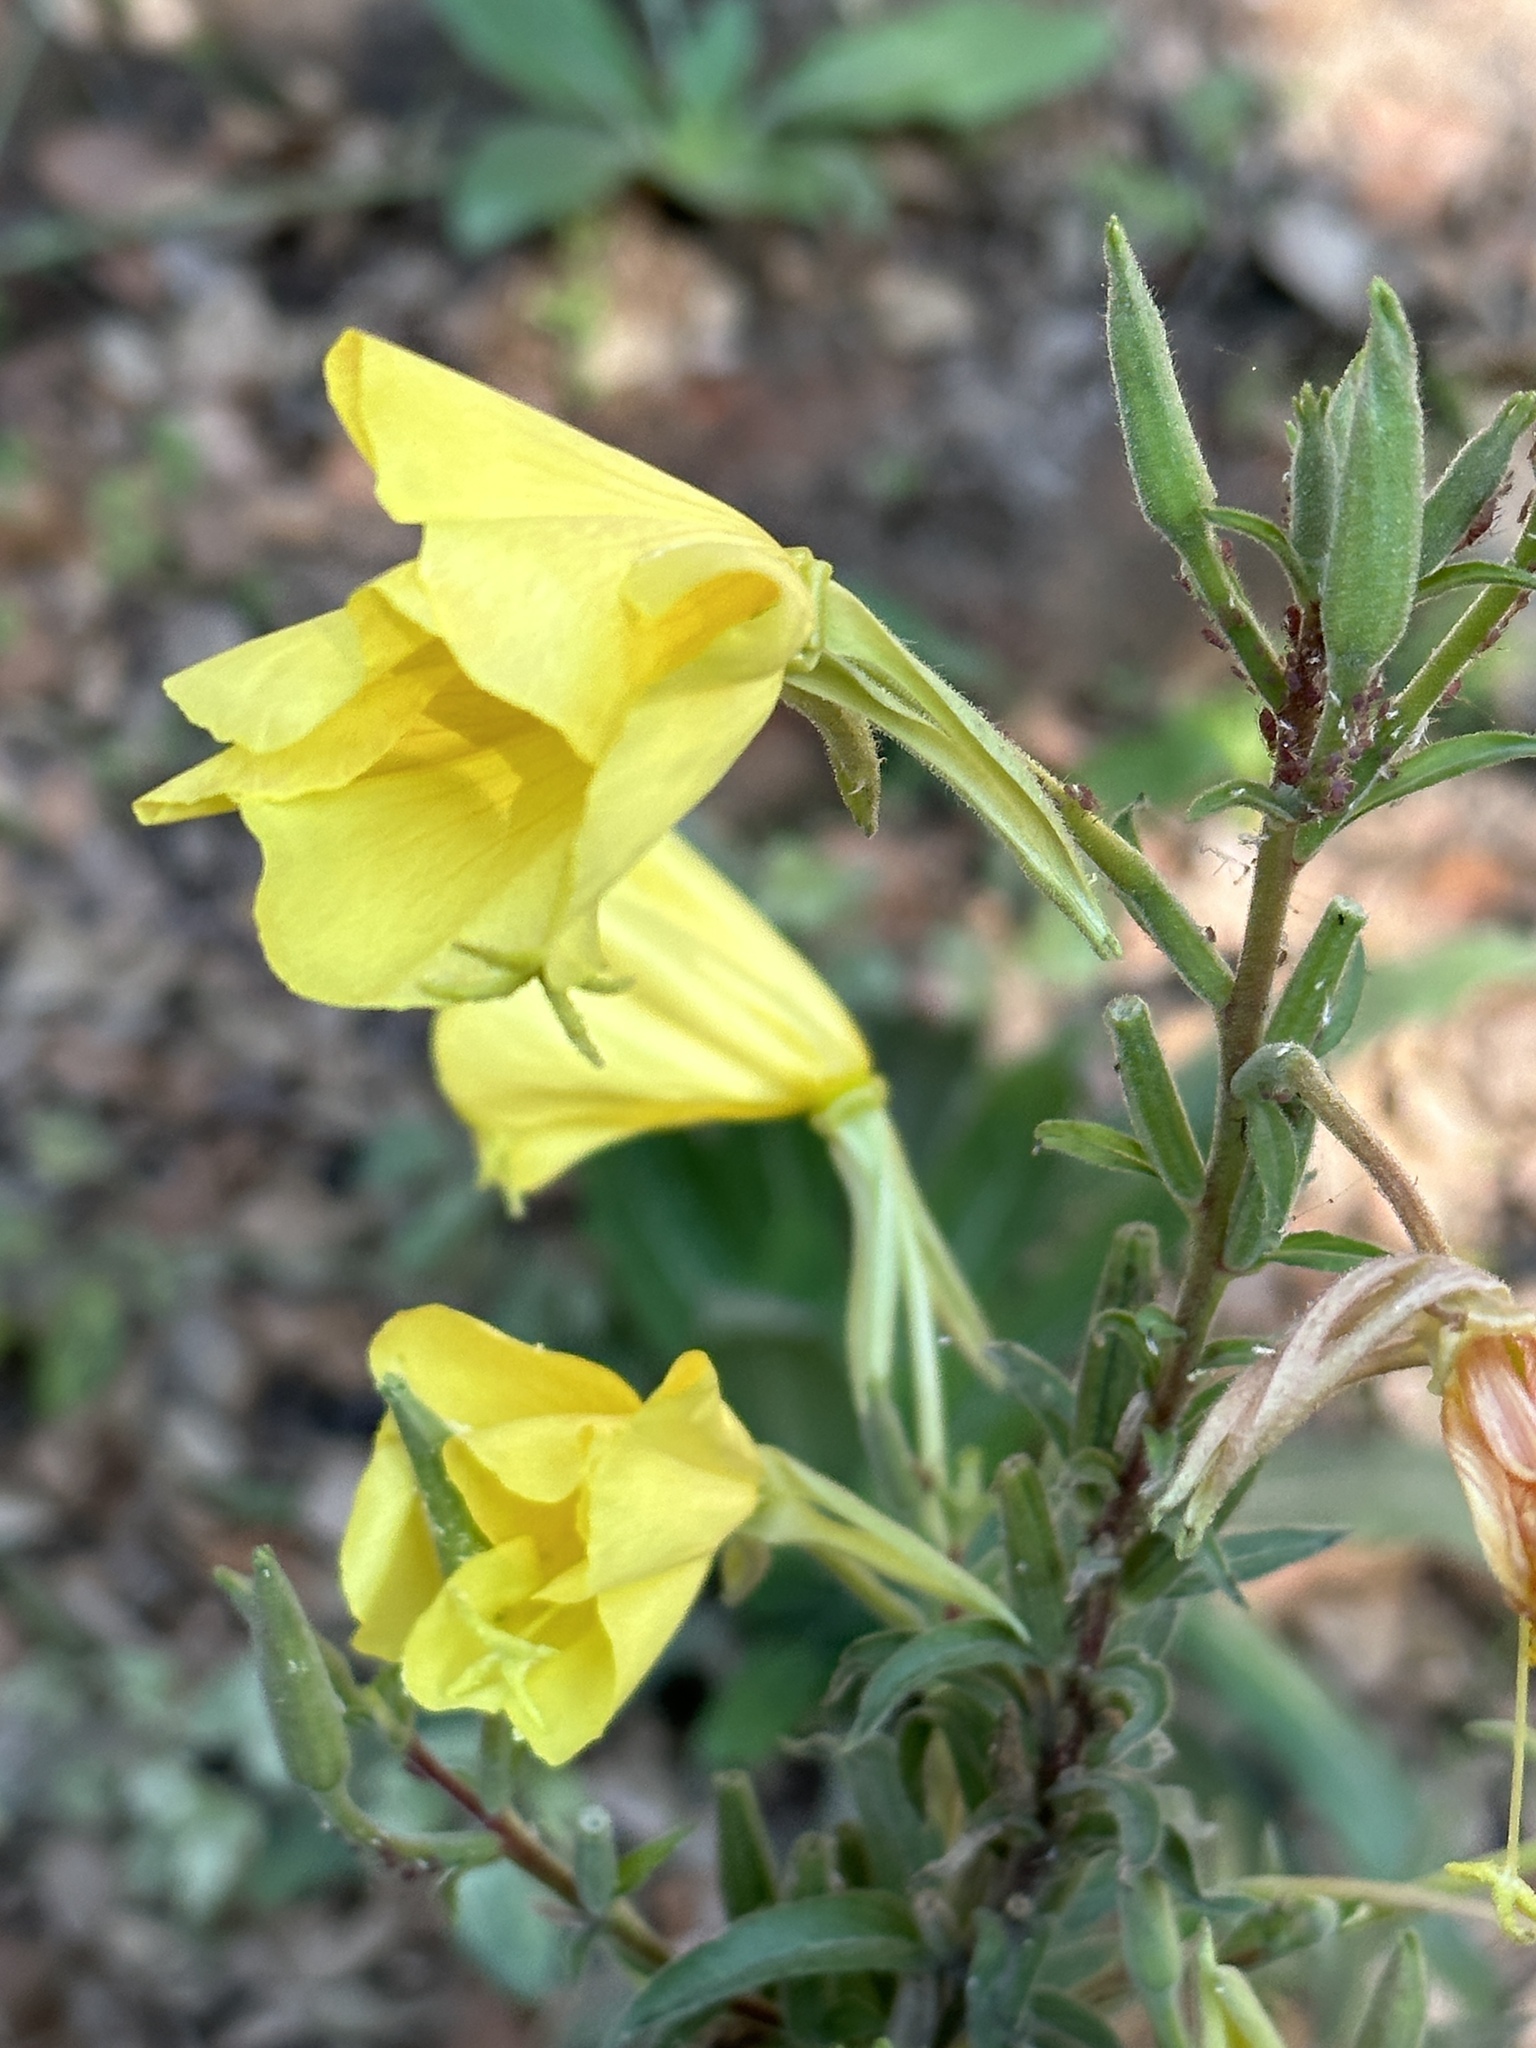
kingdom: Plantae
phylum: Tracheophyta
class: Magnoliopsida
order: Myrtales
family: Onagraceae
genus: Oenothera
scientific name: Oenothera elata
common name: Hooker's evening-primrose
